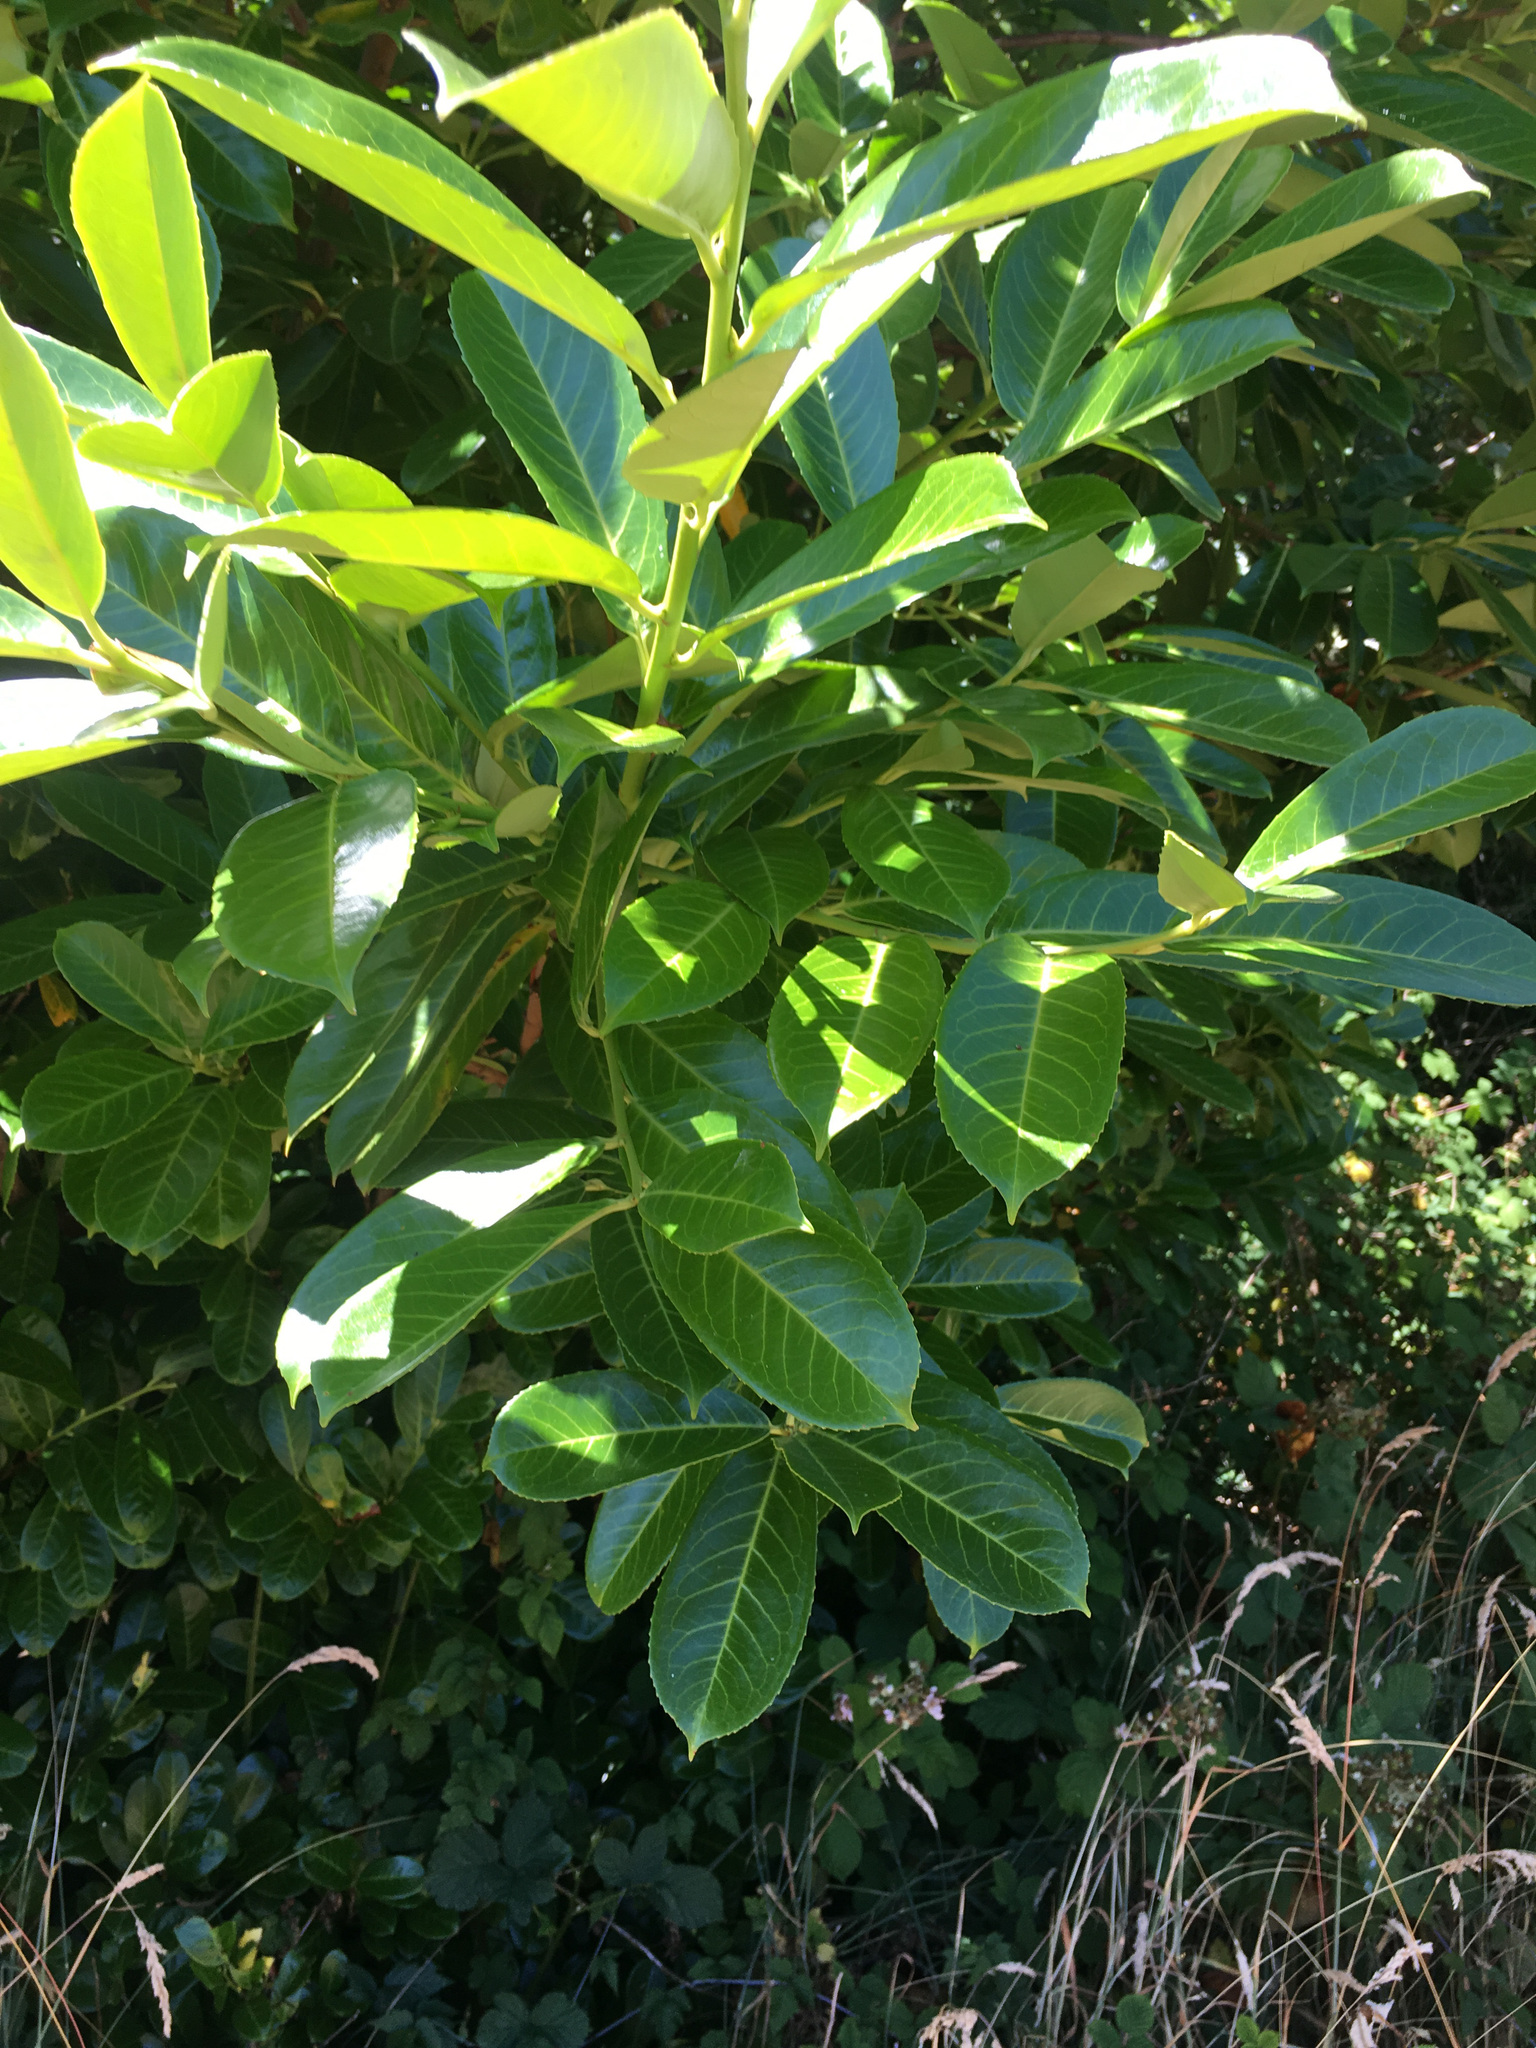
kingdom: Plantae
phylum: Tracheophyta
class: Magnoliopsida
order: Rosales
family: Rosaceae
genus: Prunus
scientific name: Prunus laurocerasus
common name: Cherry laurel
